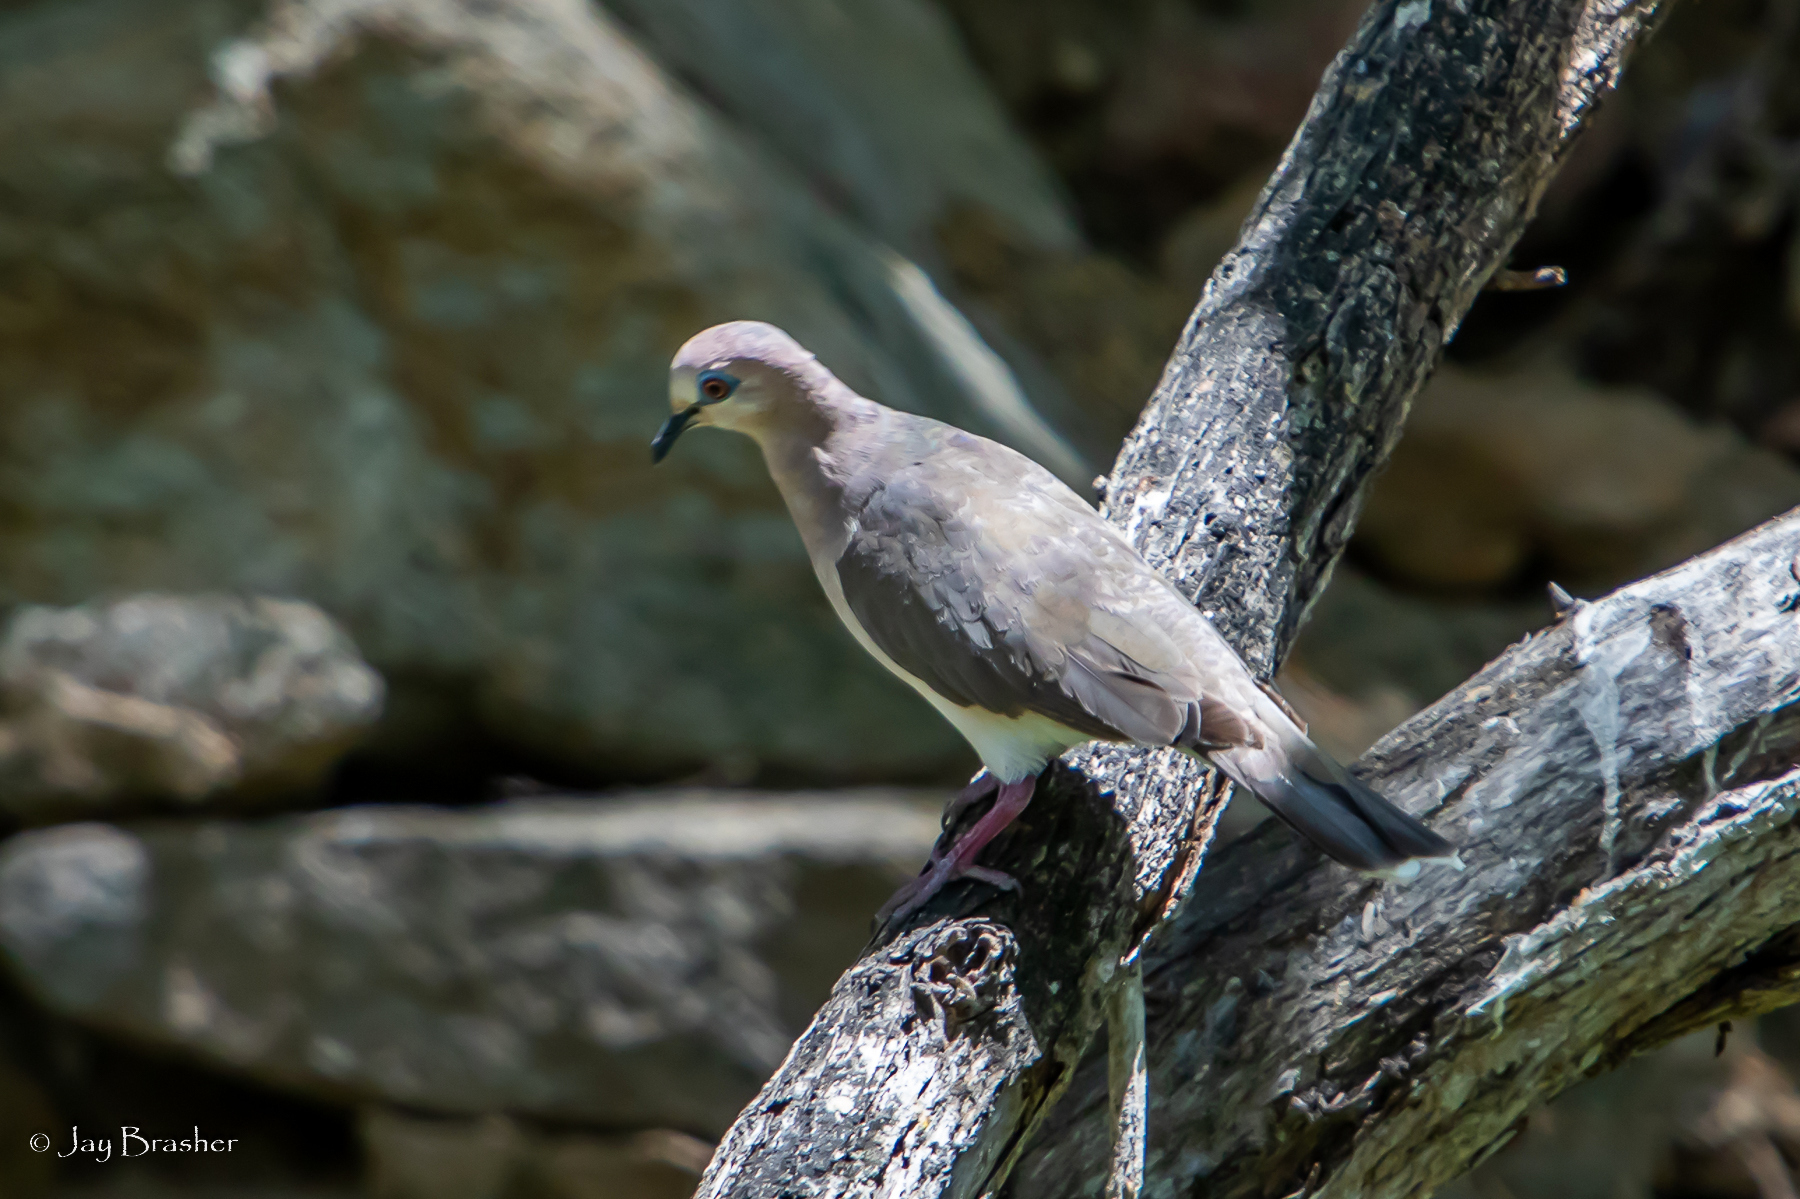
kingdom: Animalia
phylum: Chordata
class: Aves
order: Columbiformes
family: Columbidae
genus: Leptotila
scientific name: Leptotila verreauxi
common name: White-tipped dove
